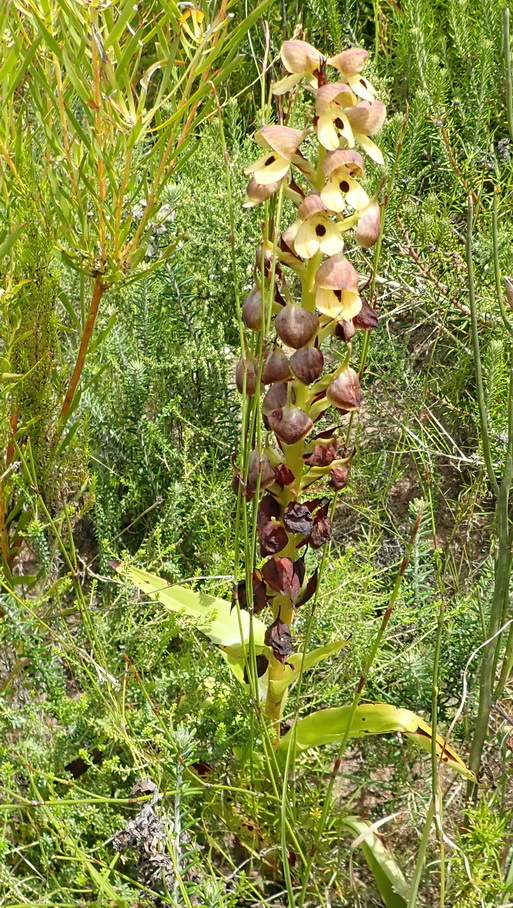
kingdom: Plantae
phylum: Tracheophyta
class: Liliopsida
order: Asparagales
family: Orchidaceae
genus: Disa
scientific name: Disa cornuta
